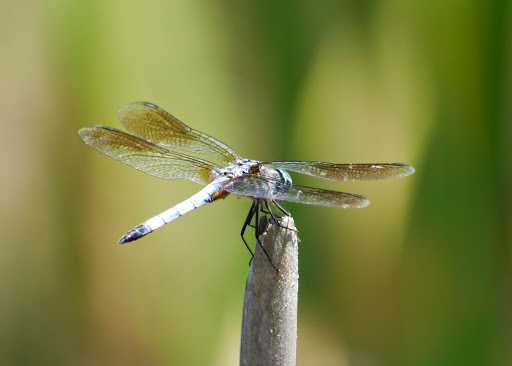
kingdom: Animalia
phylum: Arthropoda
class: Insecta
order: Odonata
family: Libellulidae
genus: Pachydiplax
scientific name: Pachydiplax longipennis
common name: Blue dasher
